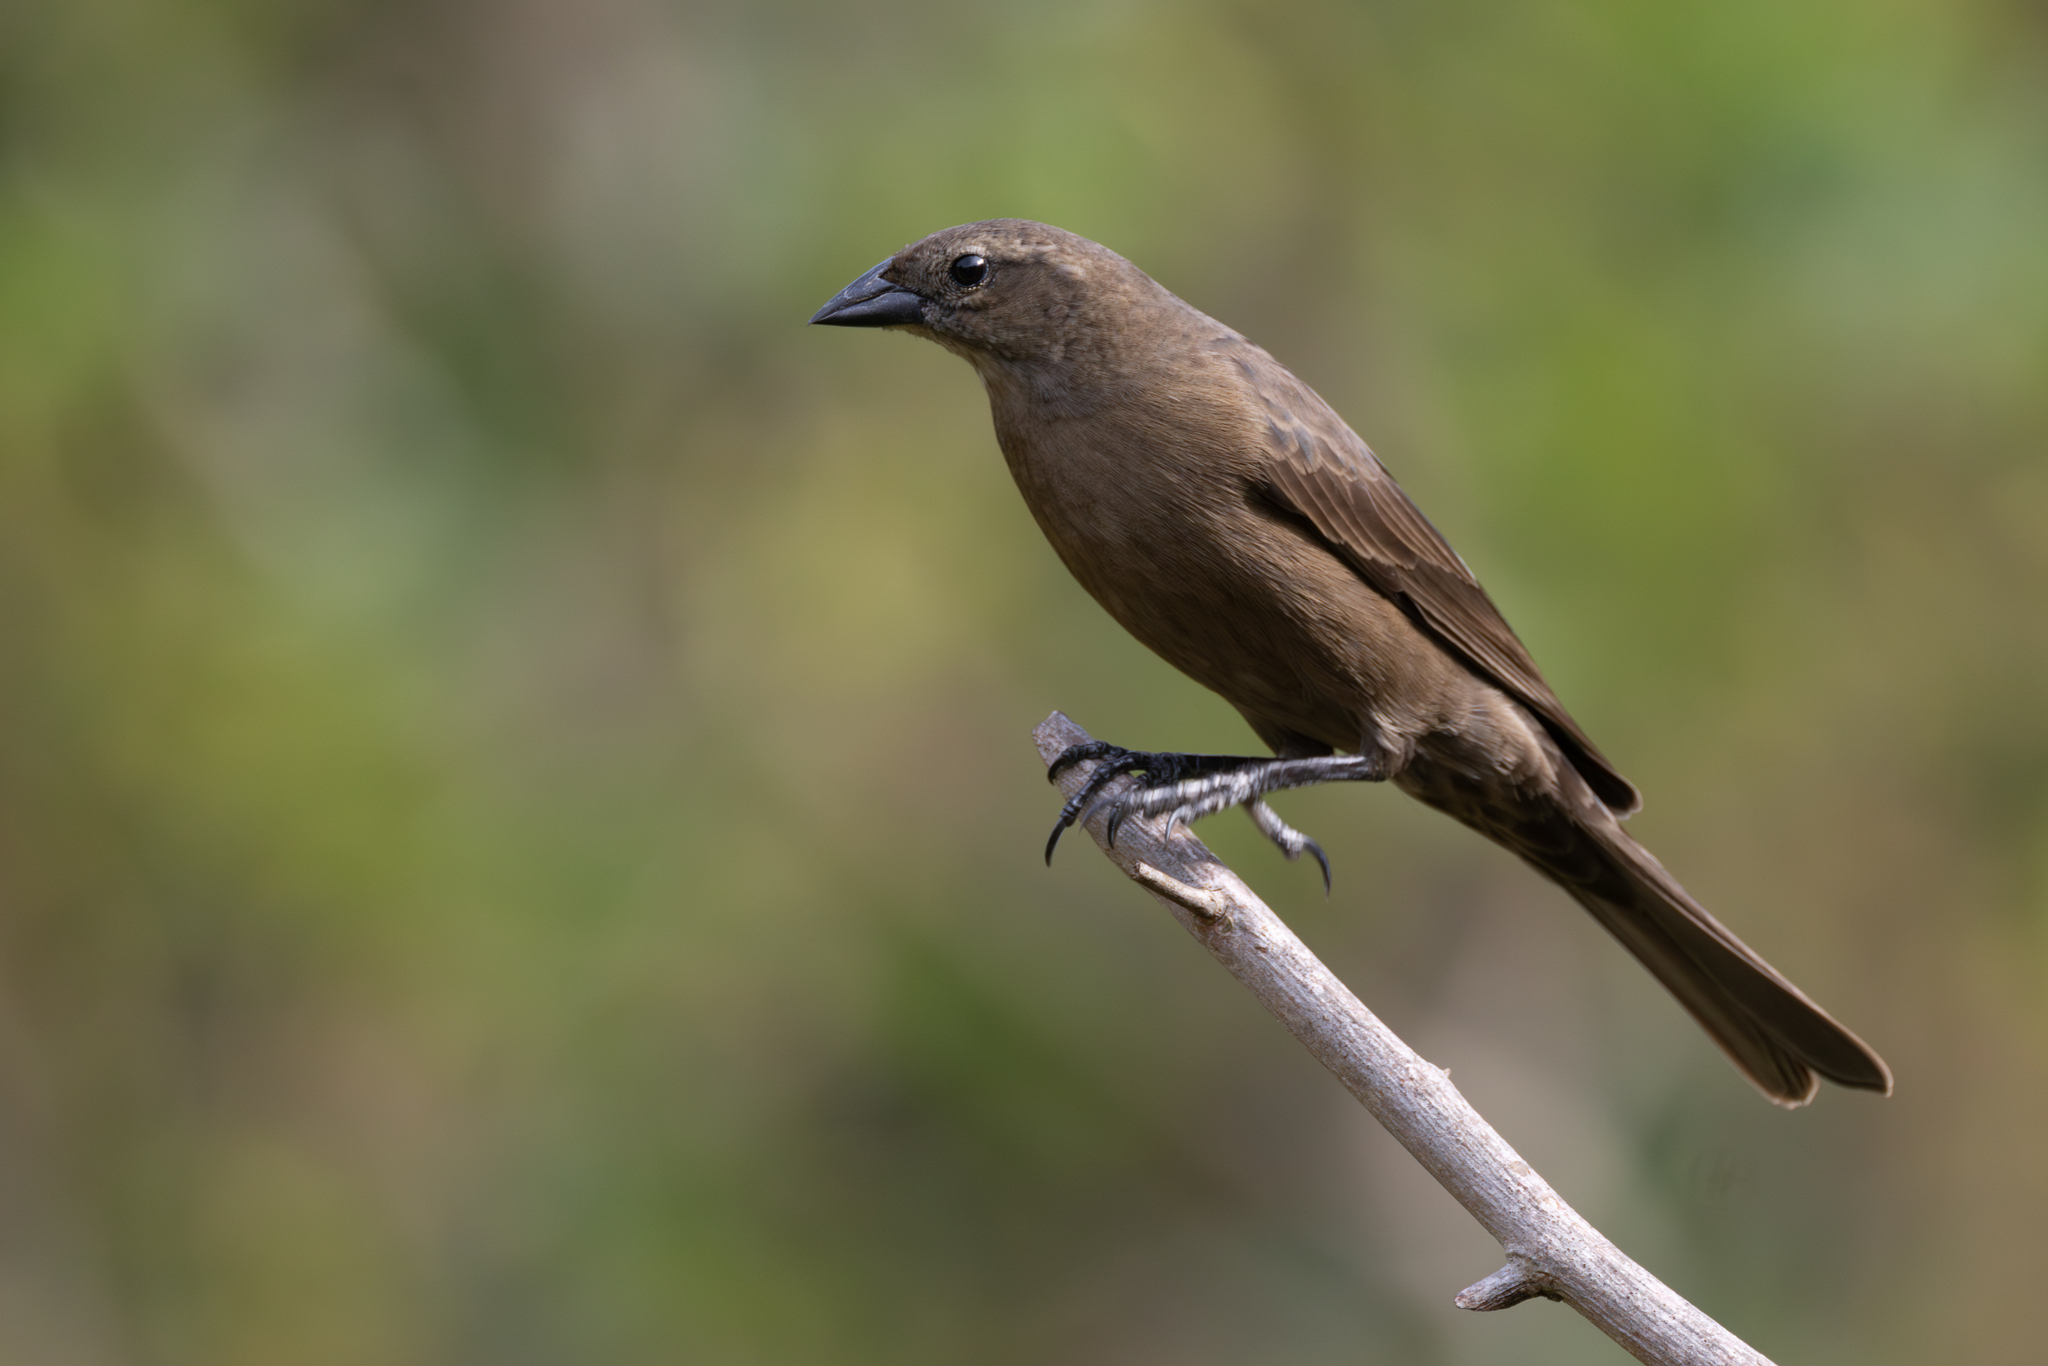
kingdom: Animalia
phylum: Chordata
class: Aves
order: Passeriformes
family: Icteridae
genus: Molothrus
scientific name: Molothrus bonariensis
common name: Shiny cowbird
